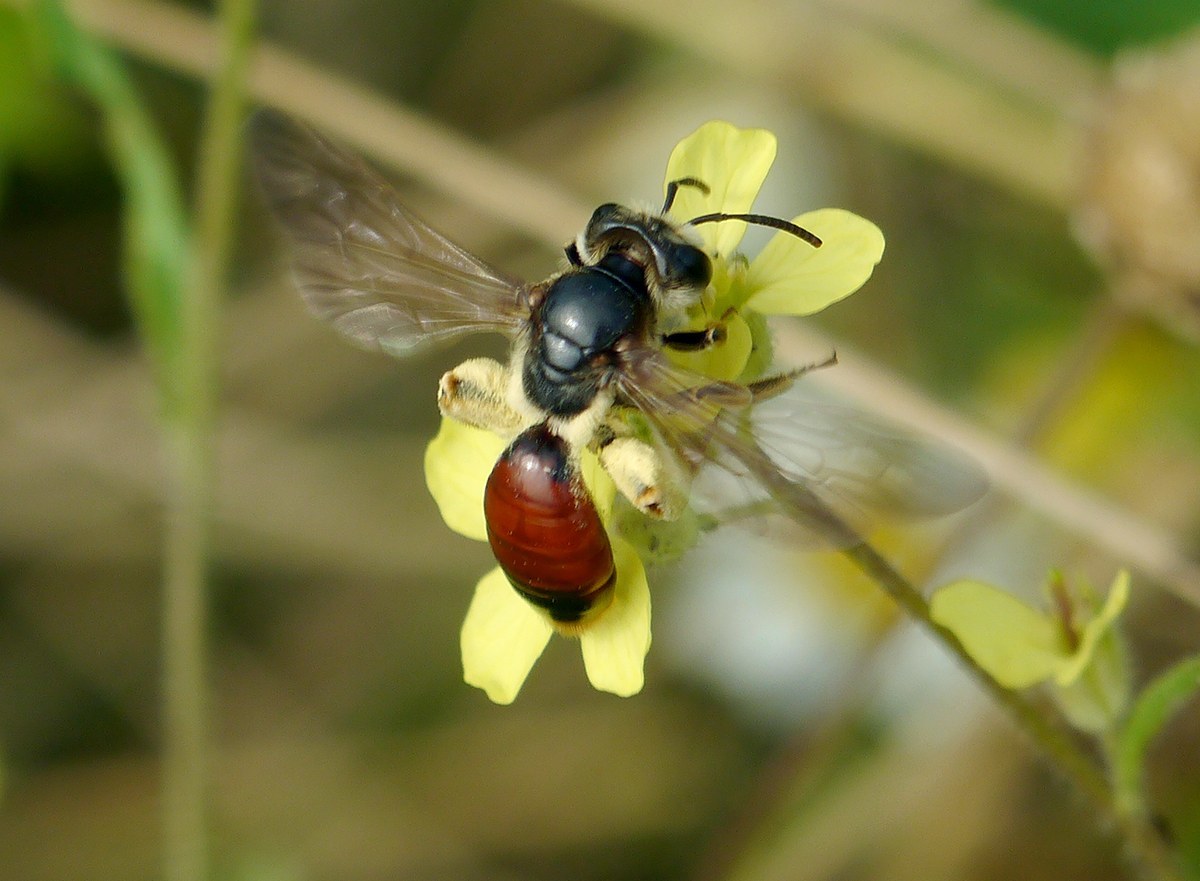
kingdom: Animalia
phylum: Arthropoda
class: Insecta
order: Hymenoptera
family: Andrenidae
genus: Andrena
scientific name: Andrena scita
